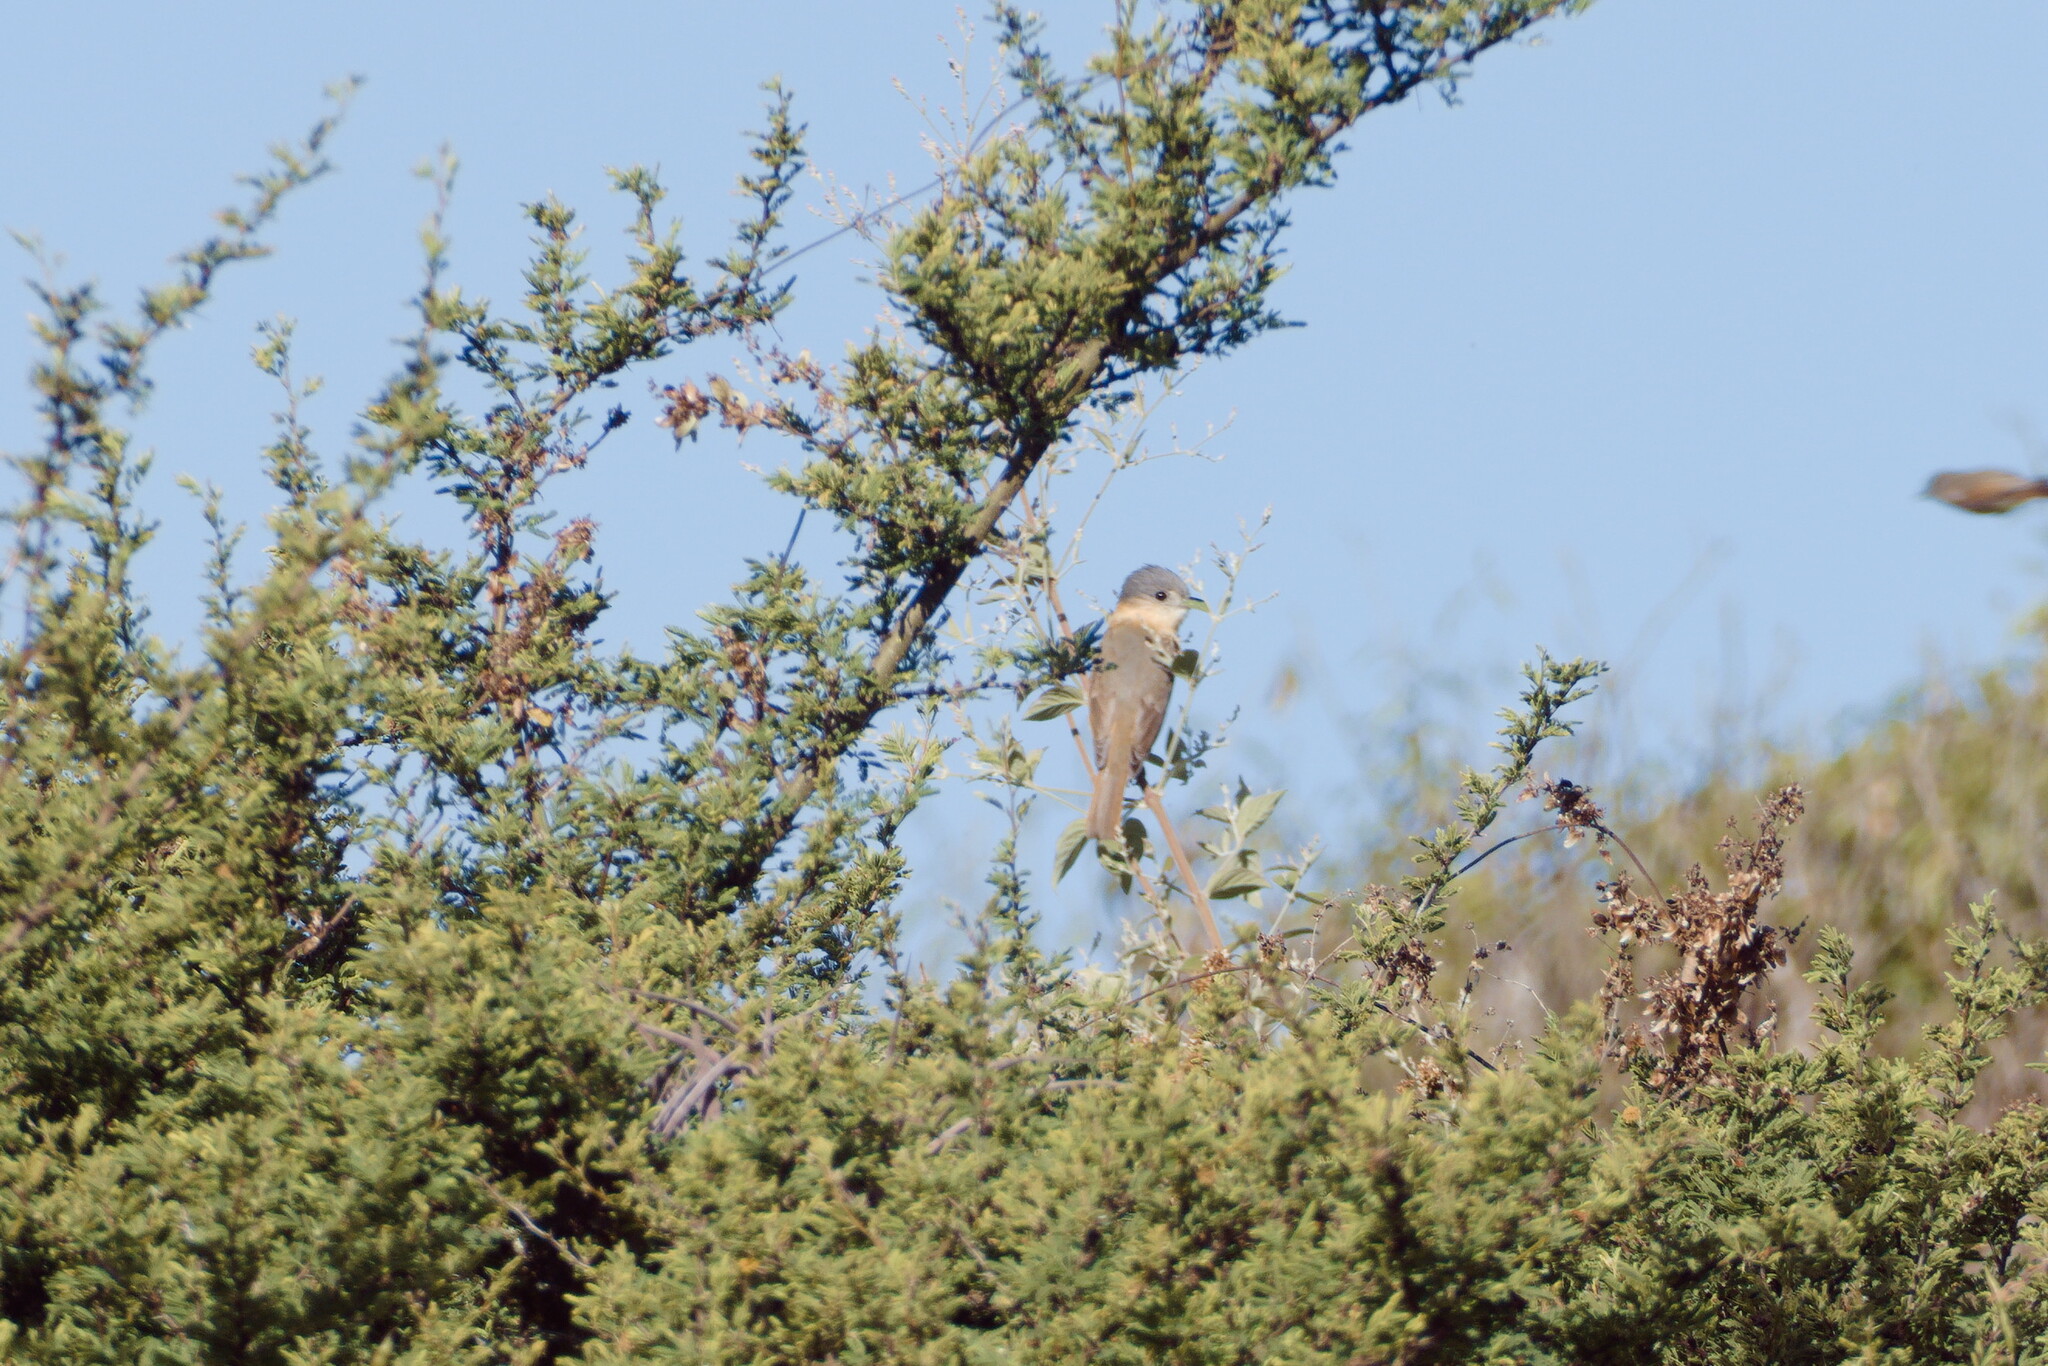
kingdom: Animalia
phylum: Chordata
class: Aves
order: Passeriformes
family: Cotingidae
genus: Pachyramphus
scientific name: Pachyramphus aglaiae
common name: Rose-throated becard
